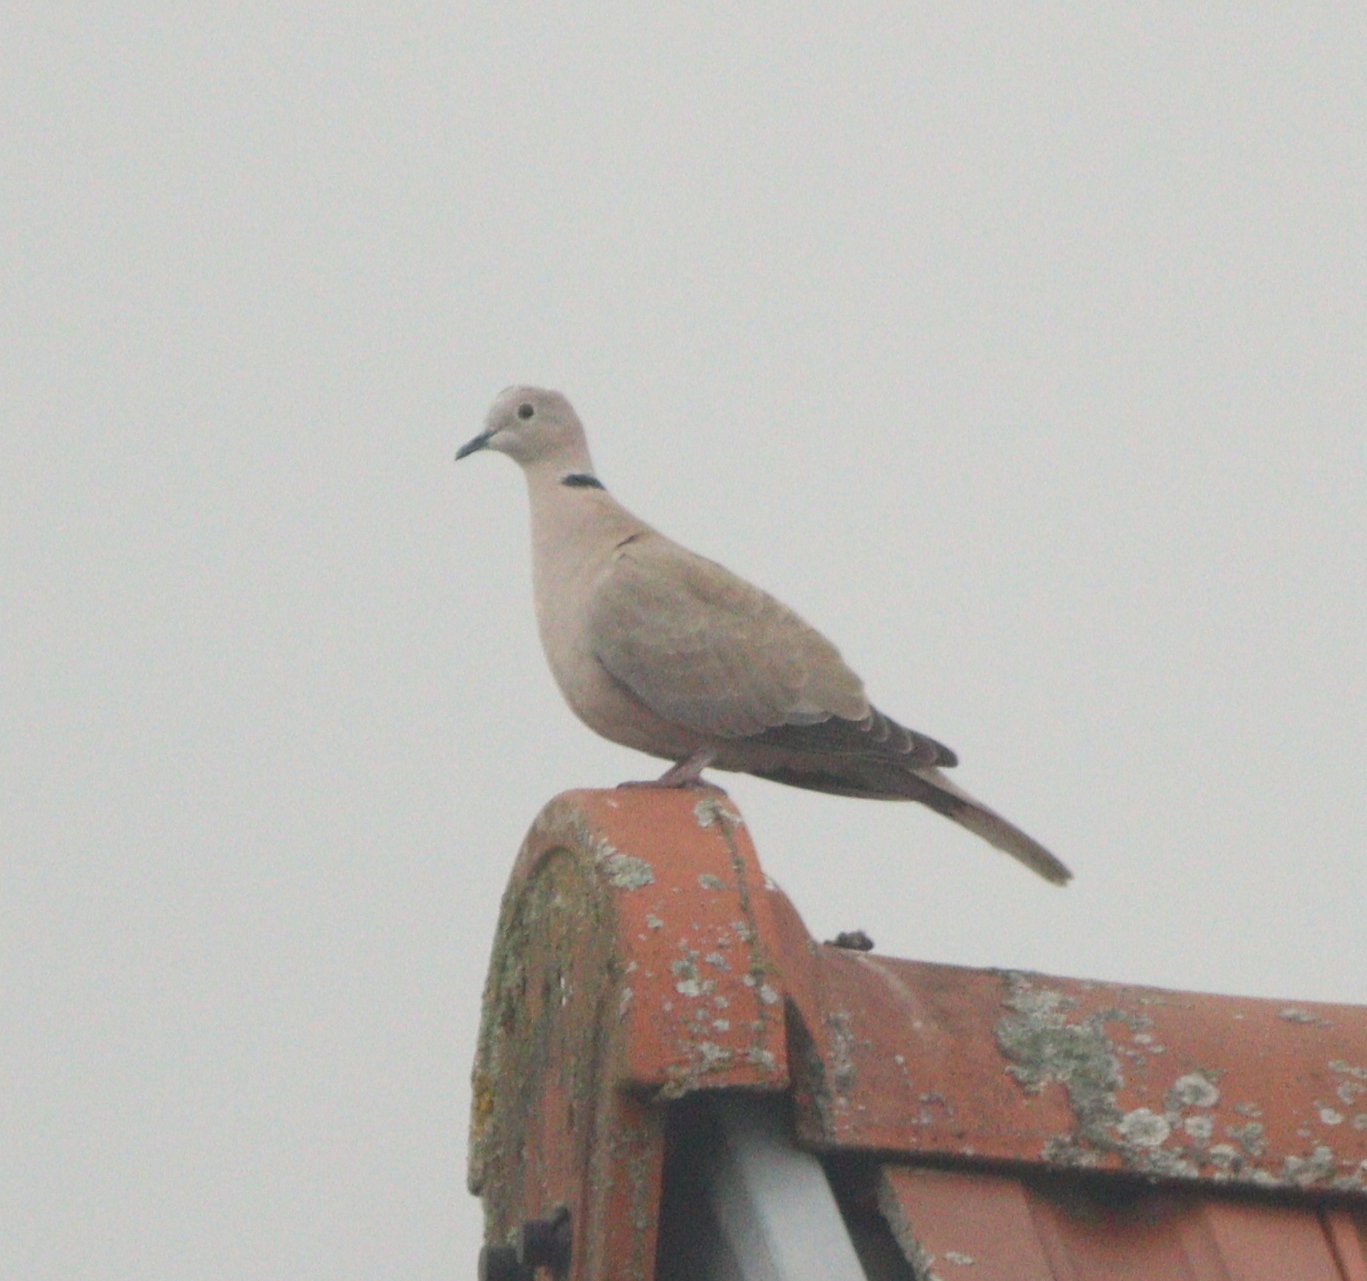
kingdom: Animalia
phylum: Chordata
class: Aves
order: Columbiformes
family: Columbidae
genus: Streptopelia
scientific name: Streptopelia decaocto
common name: Eurasian collared dove
